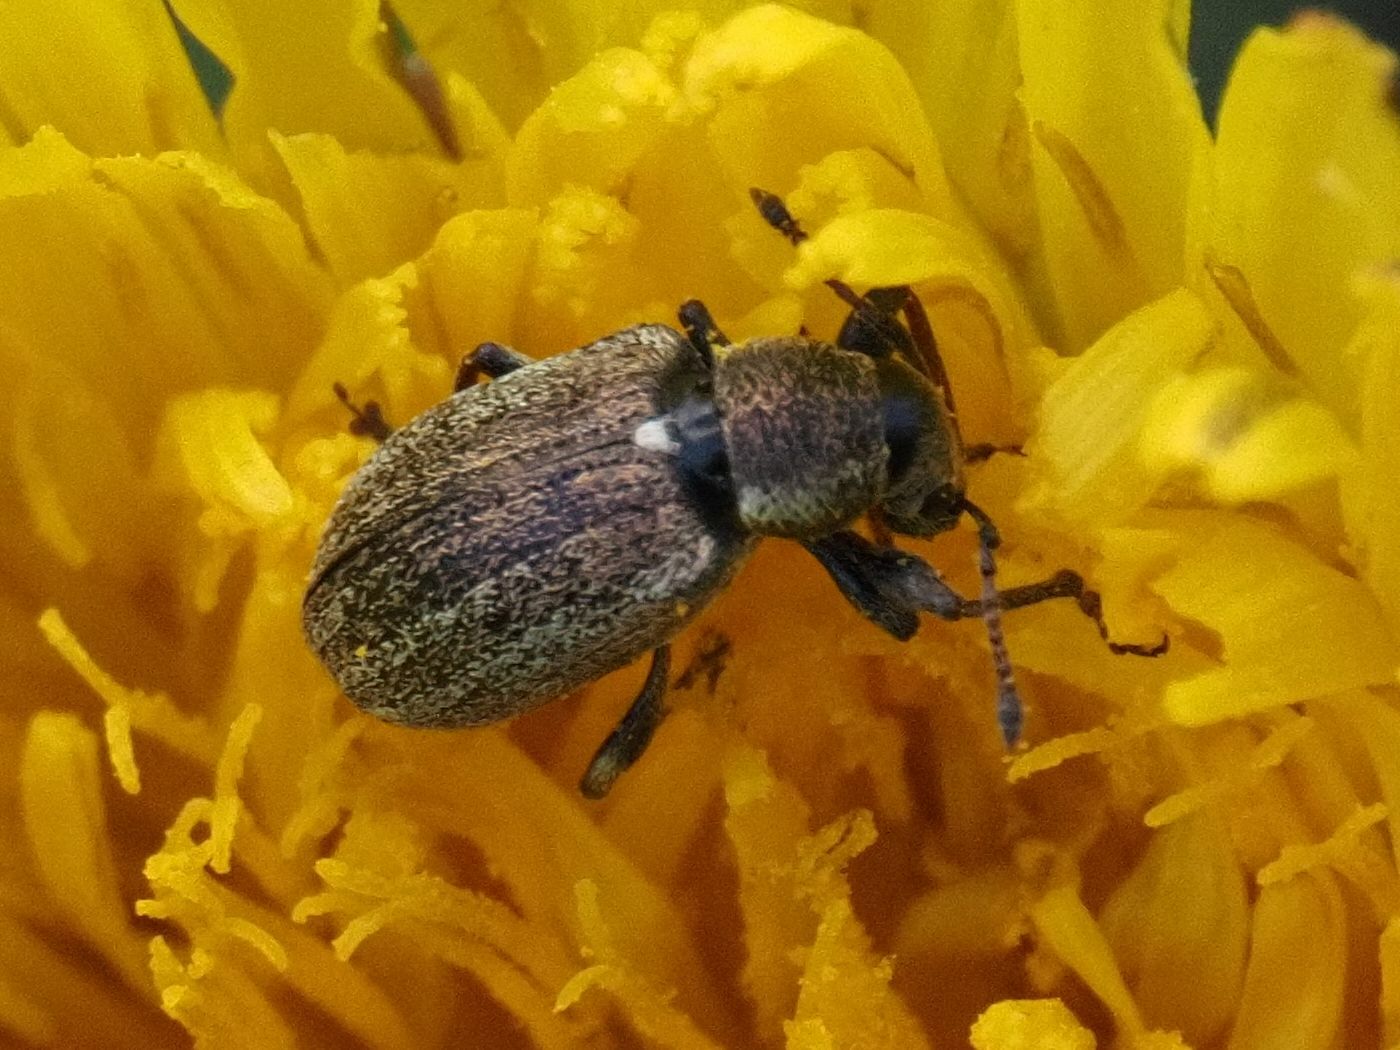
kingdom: Animalia
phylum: Arthropoda
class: Insecta
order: Coleoptera
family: Curculionidae
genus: Phyllobius
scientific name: Phyllobius pyri
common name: Common leaf weevil
